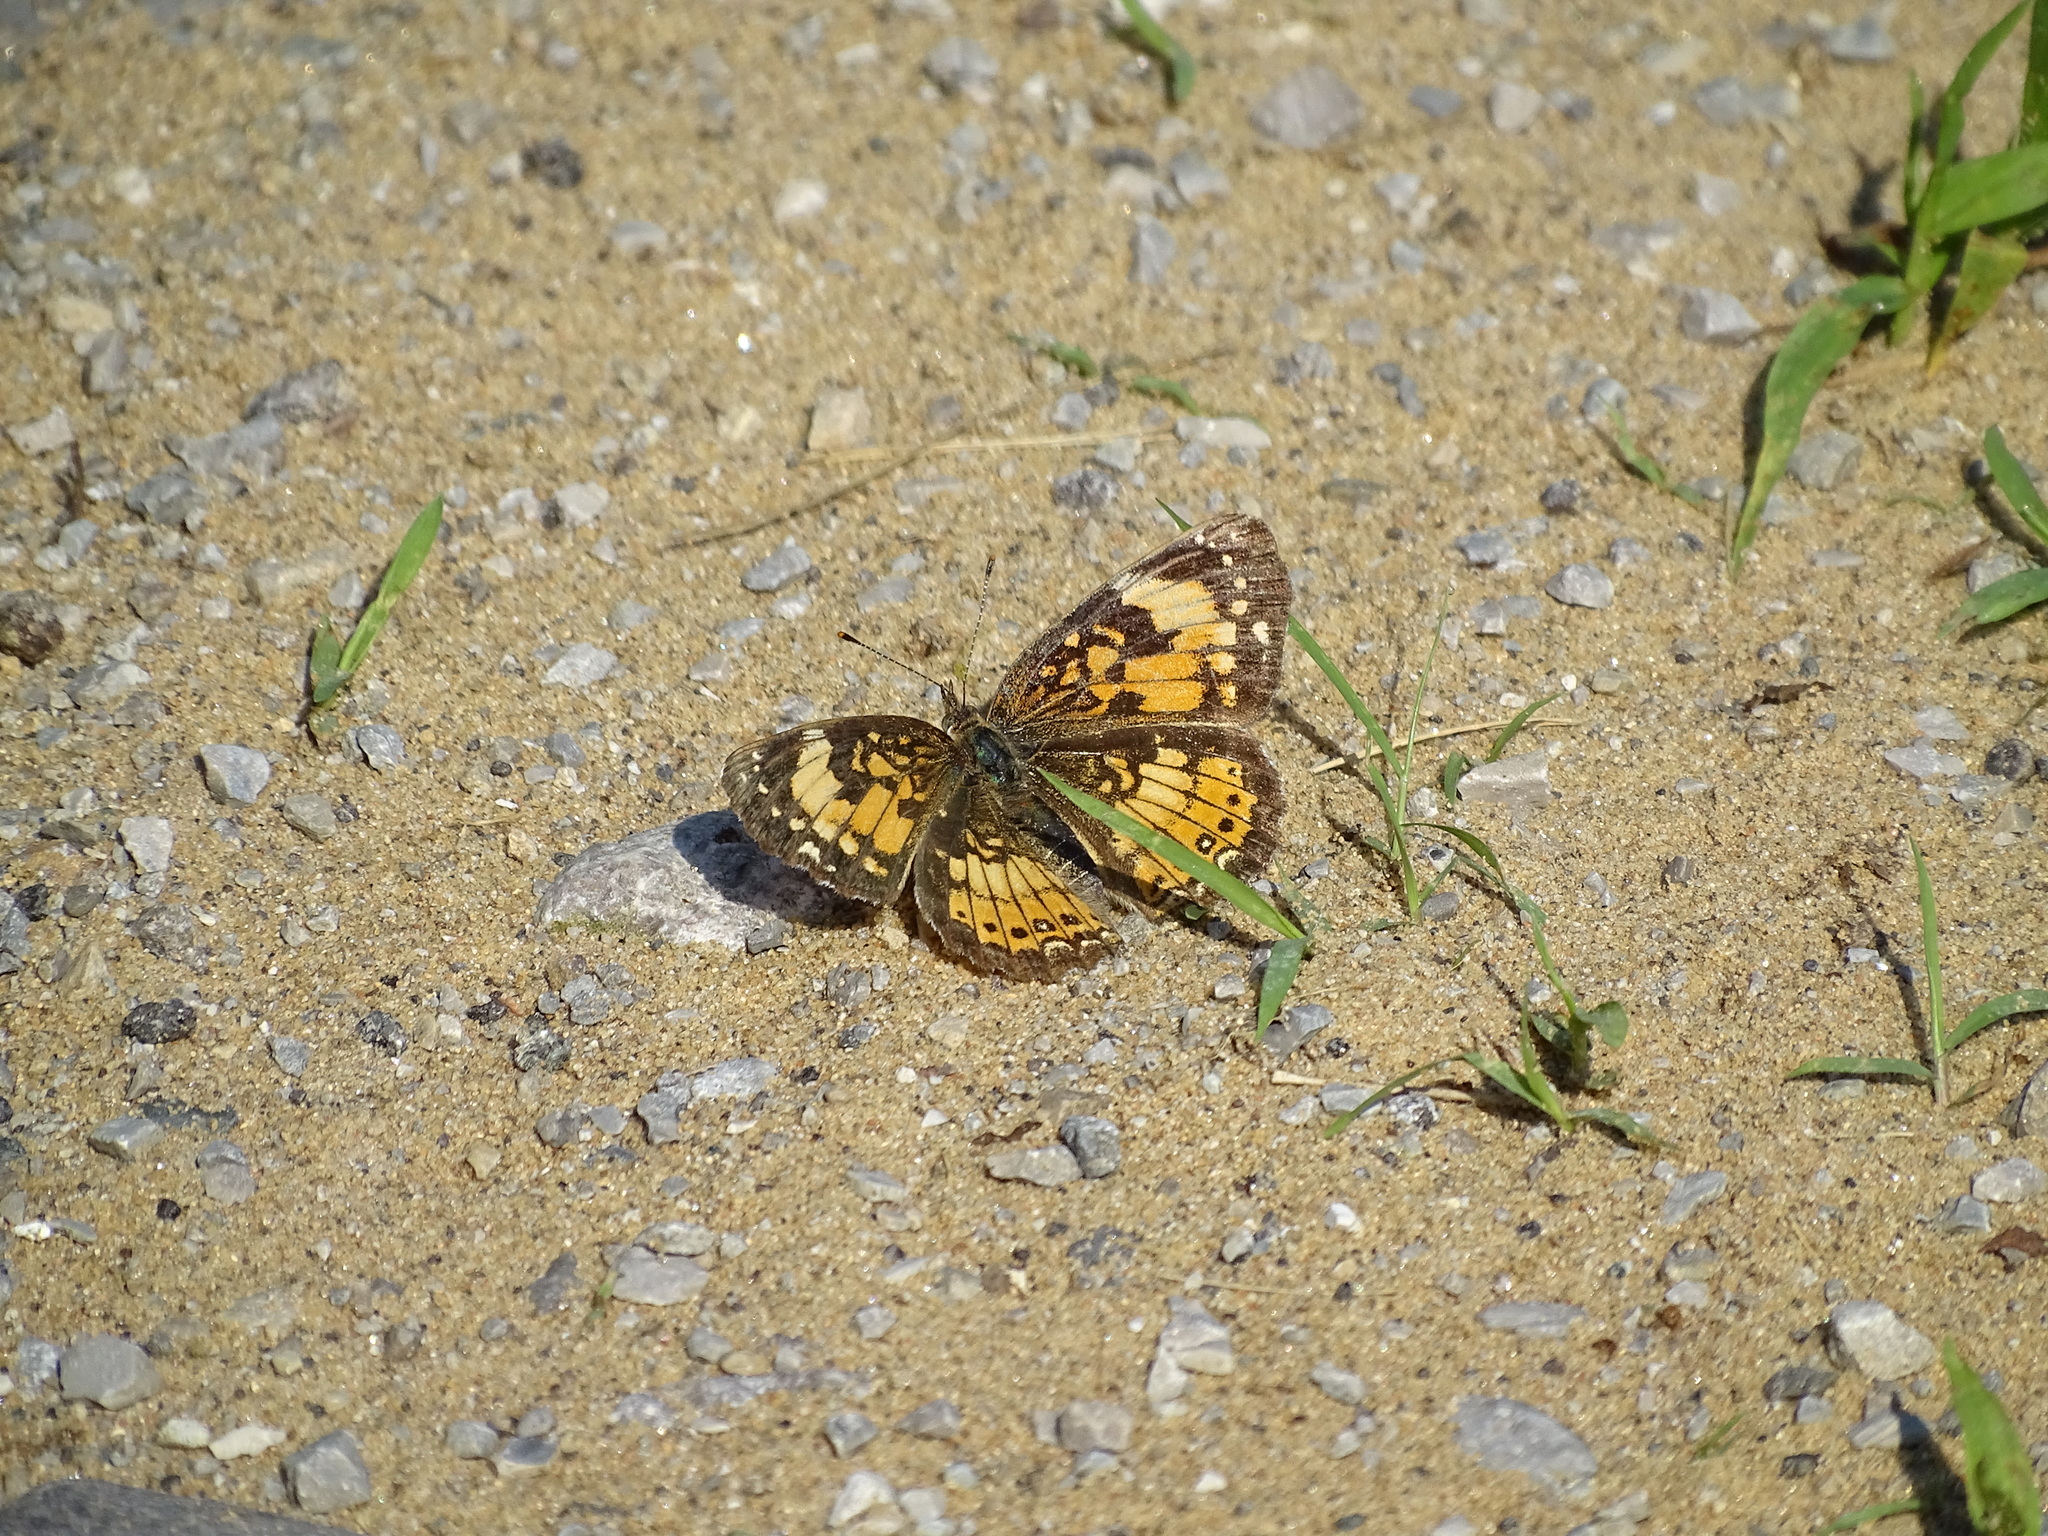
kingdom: Animalia
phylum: Arthropoda
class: Insecta
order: Lepidoptera
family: Nymphalidae
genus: Chlosyne
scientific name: Chlosyne nycteis
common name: Silvery checkerspot
